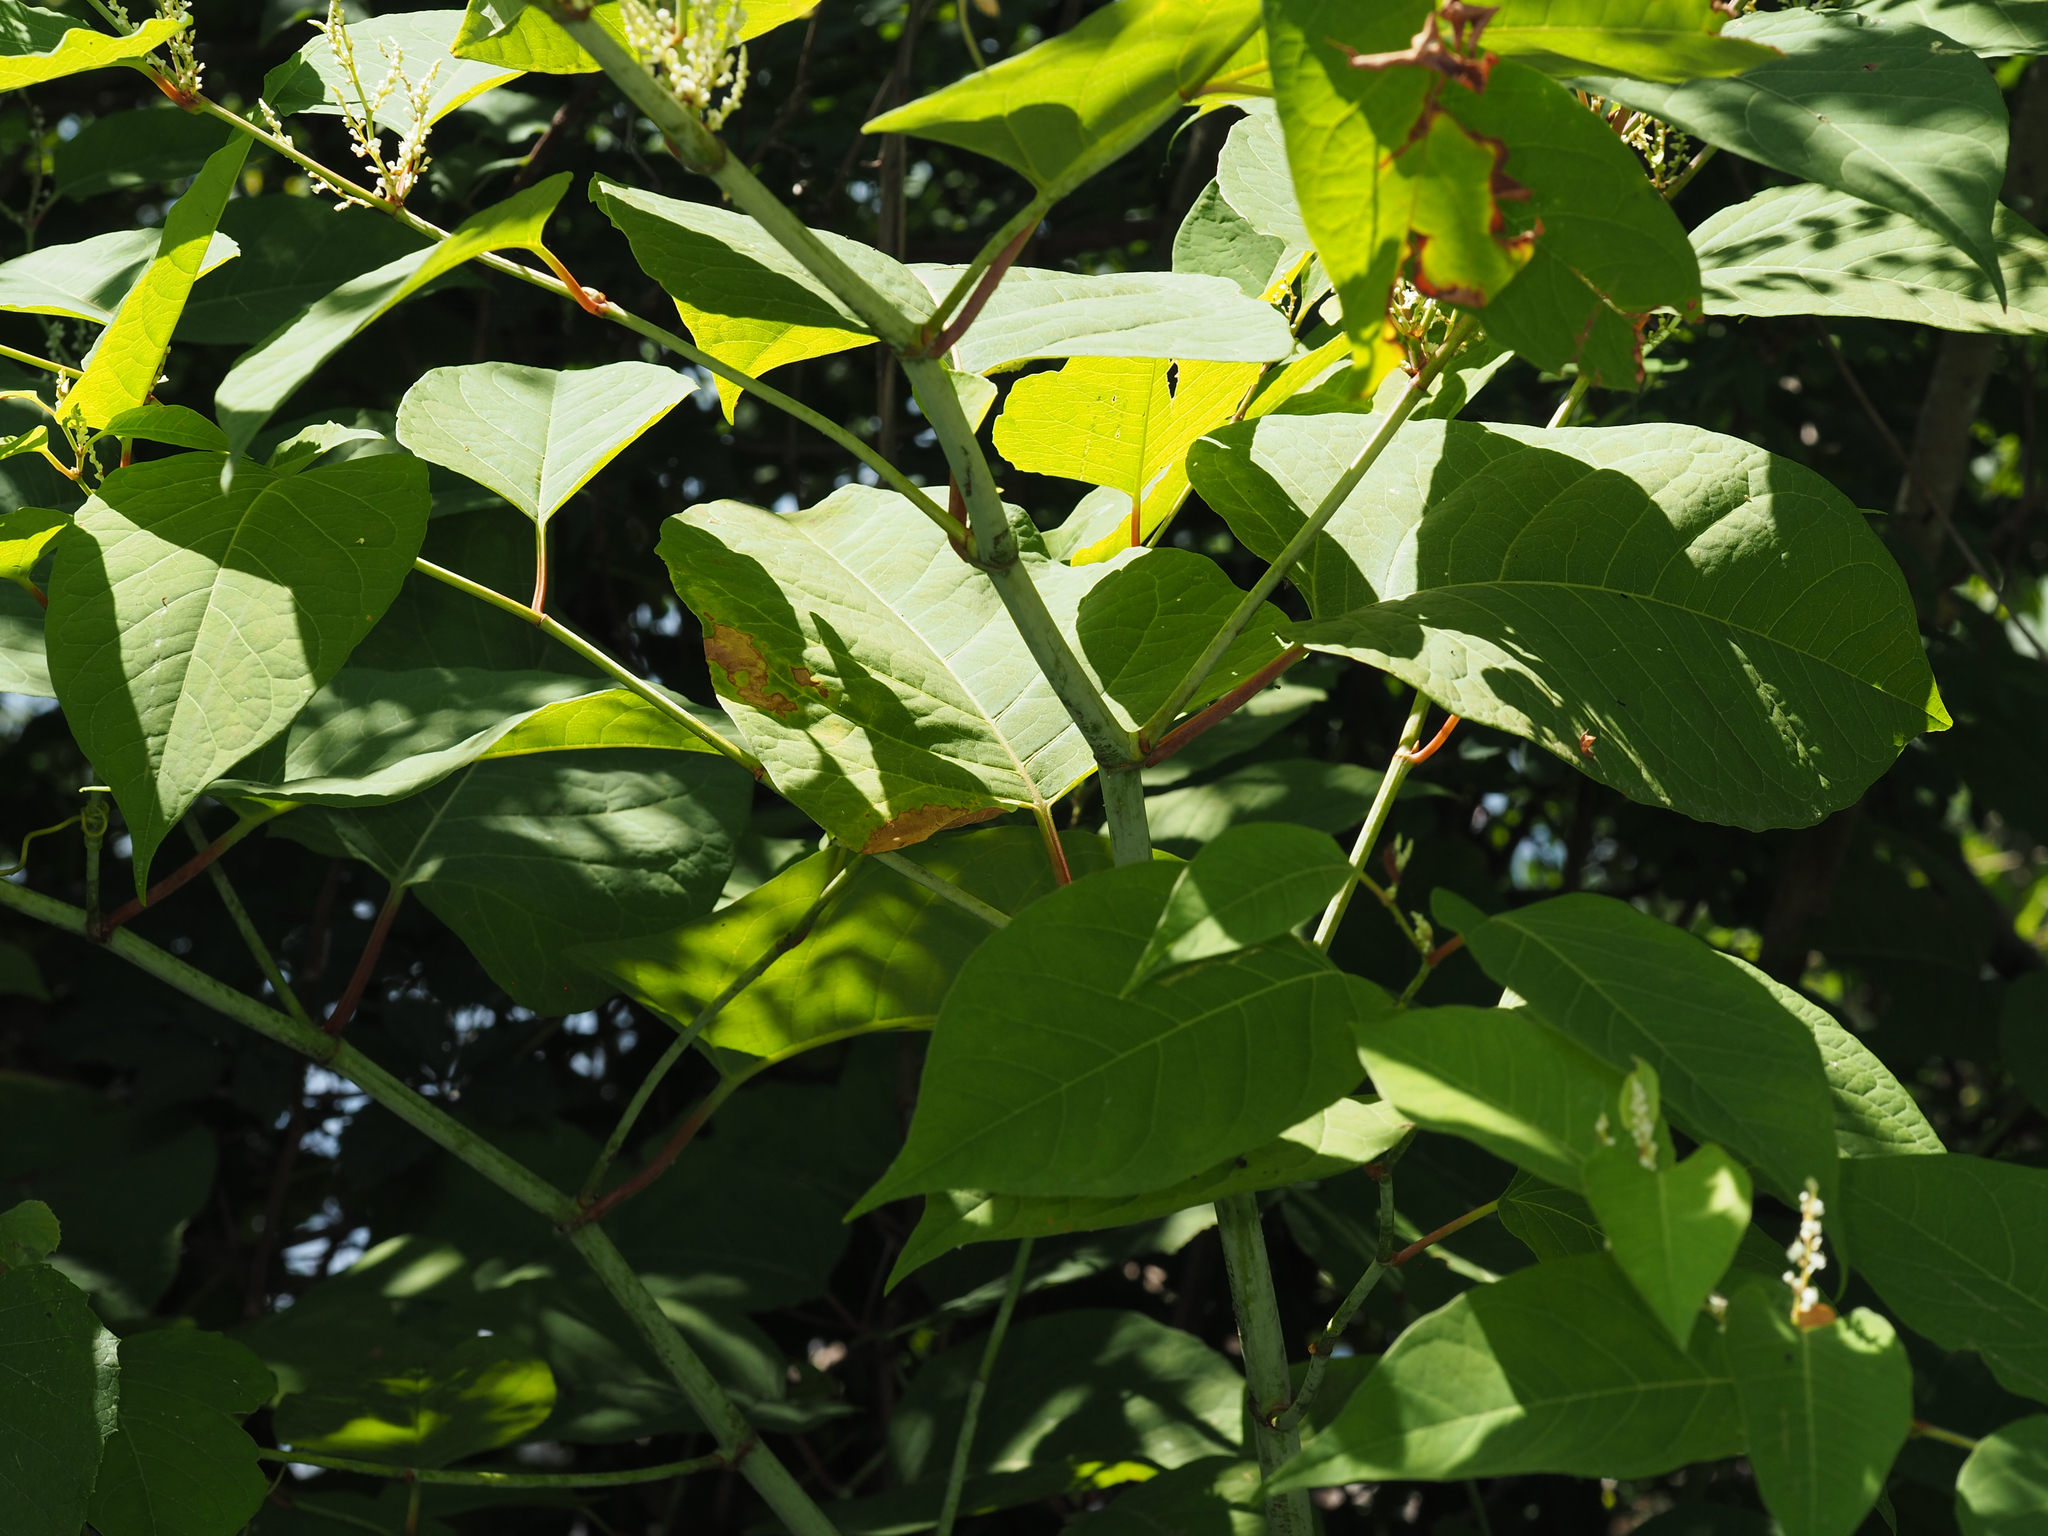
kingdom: Plantae
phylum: Tracheophyta
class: Magnoliopsida
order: Caryophyllales
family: Polygonaceae
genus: Reynoutria
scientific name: Reynoutria japonica
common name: Japanese knotweed
